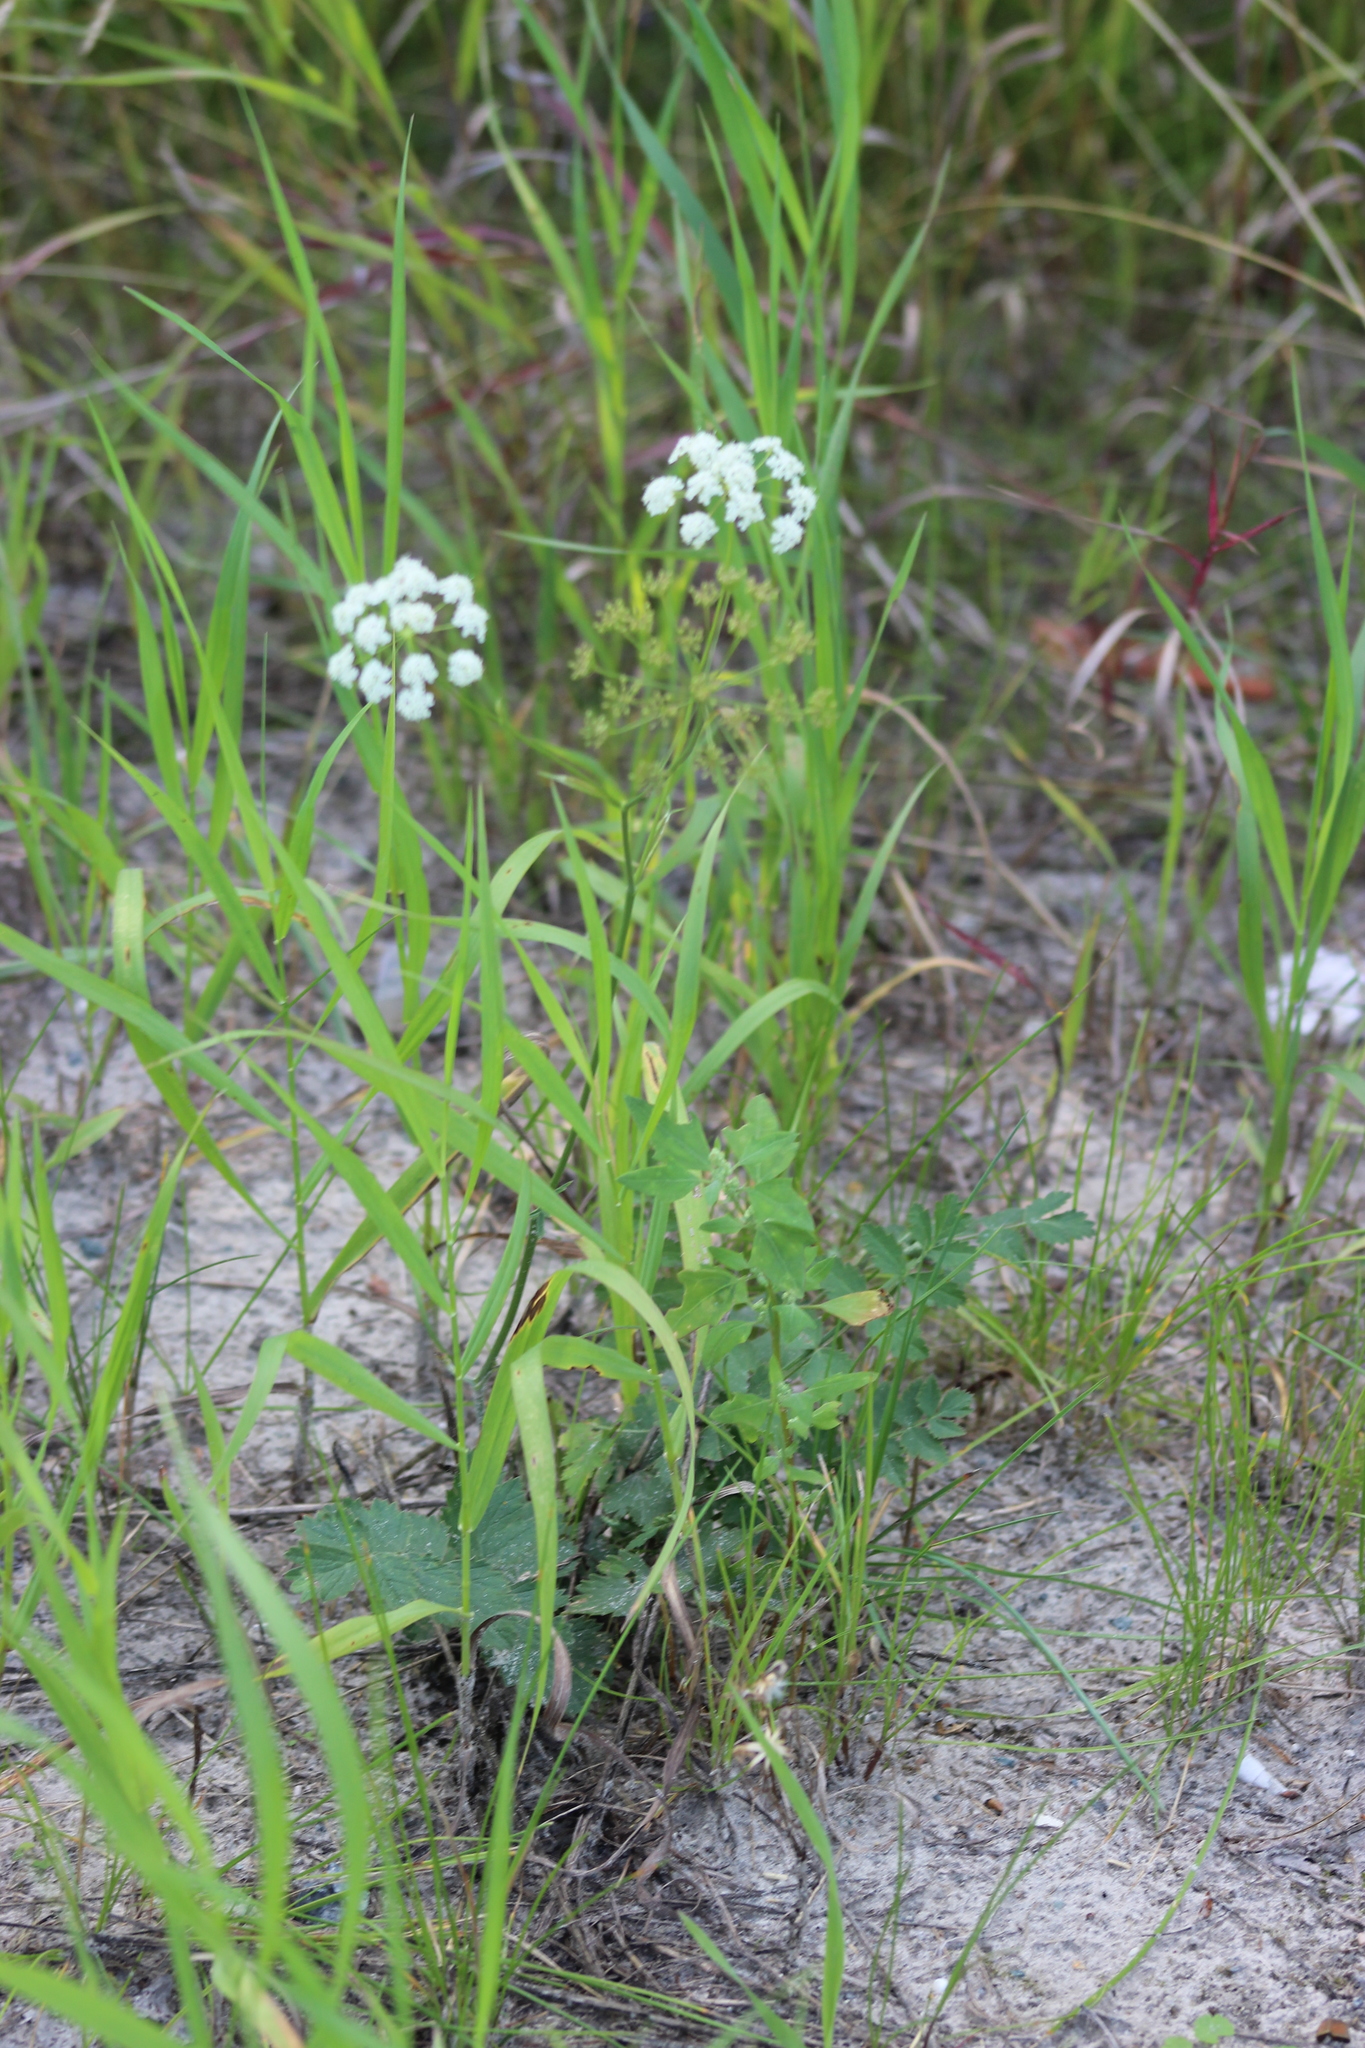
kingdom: Plantae
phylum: Tracheophyta
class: Magnoliopsida
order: Apiales
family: Apiaceae
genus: Pimpinella
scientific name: Pimpinella saxifraga
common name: Burnet-saxifrage
